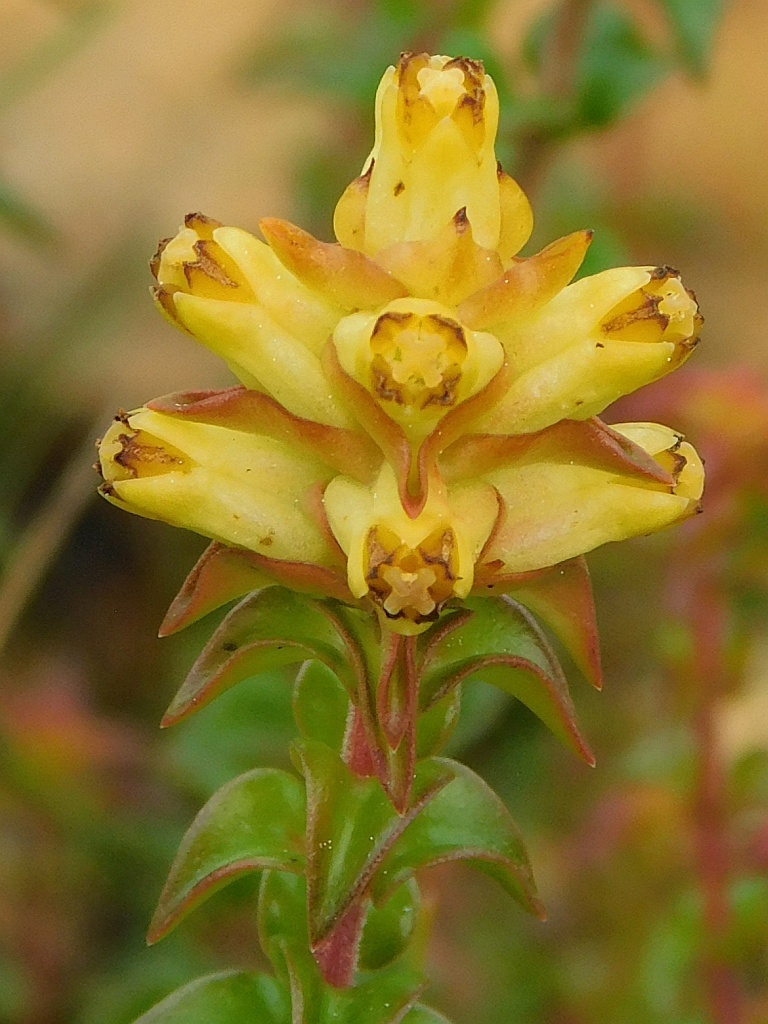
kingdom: Plantae
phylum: Tracheophyta
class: Magnoliopsida
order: Myrtales
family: Penaeaceae
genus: Penaea
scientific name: Penaea mucronata
